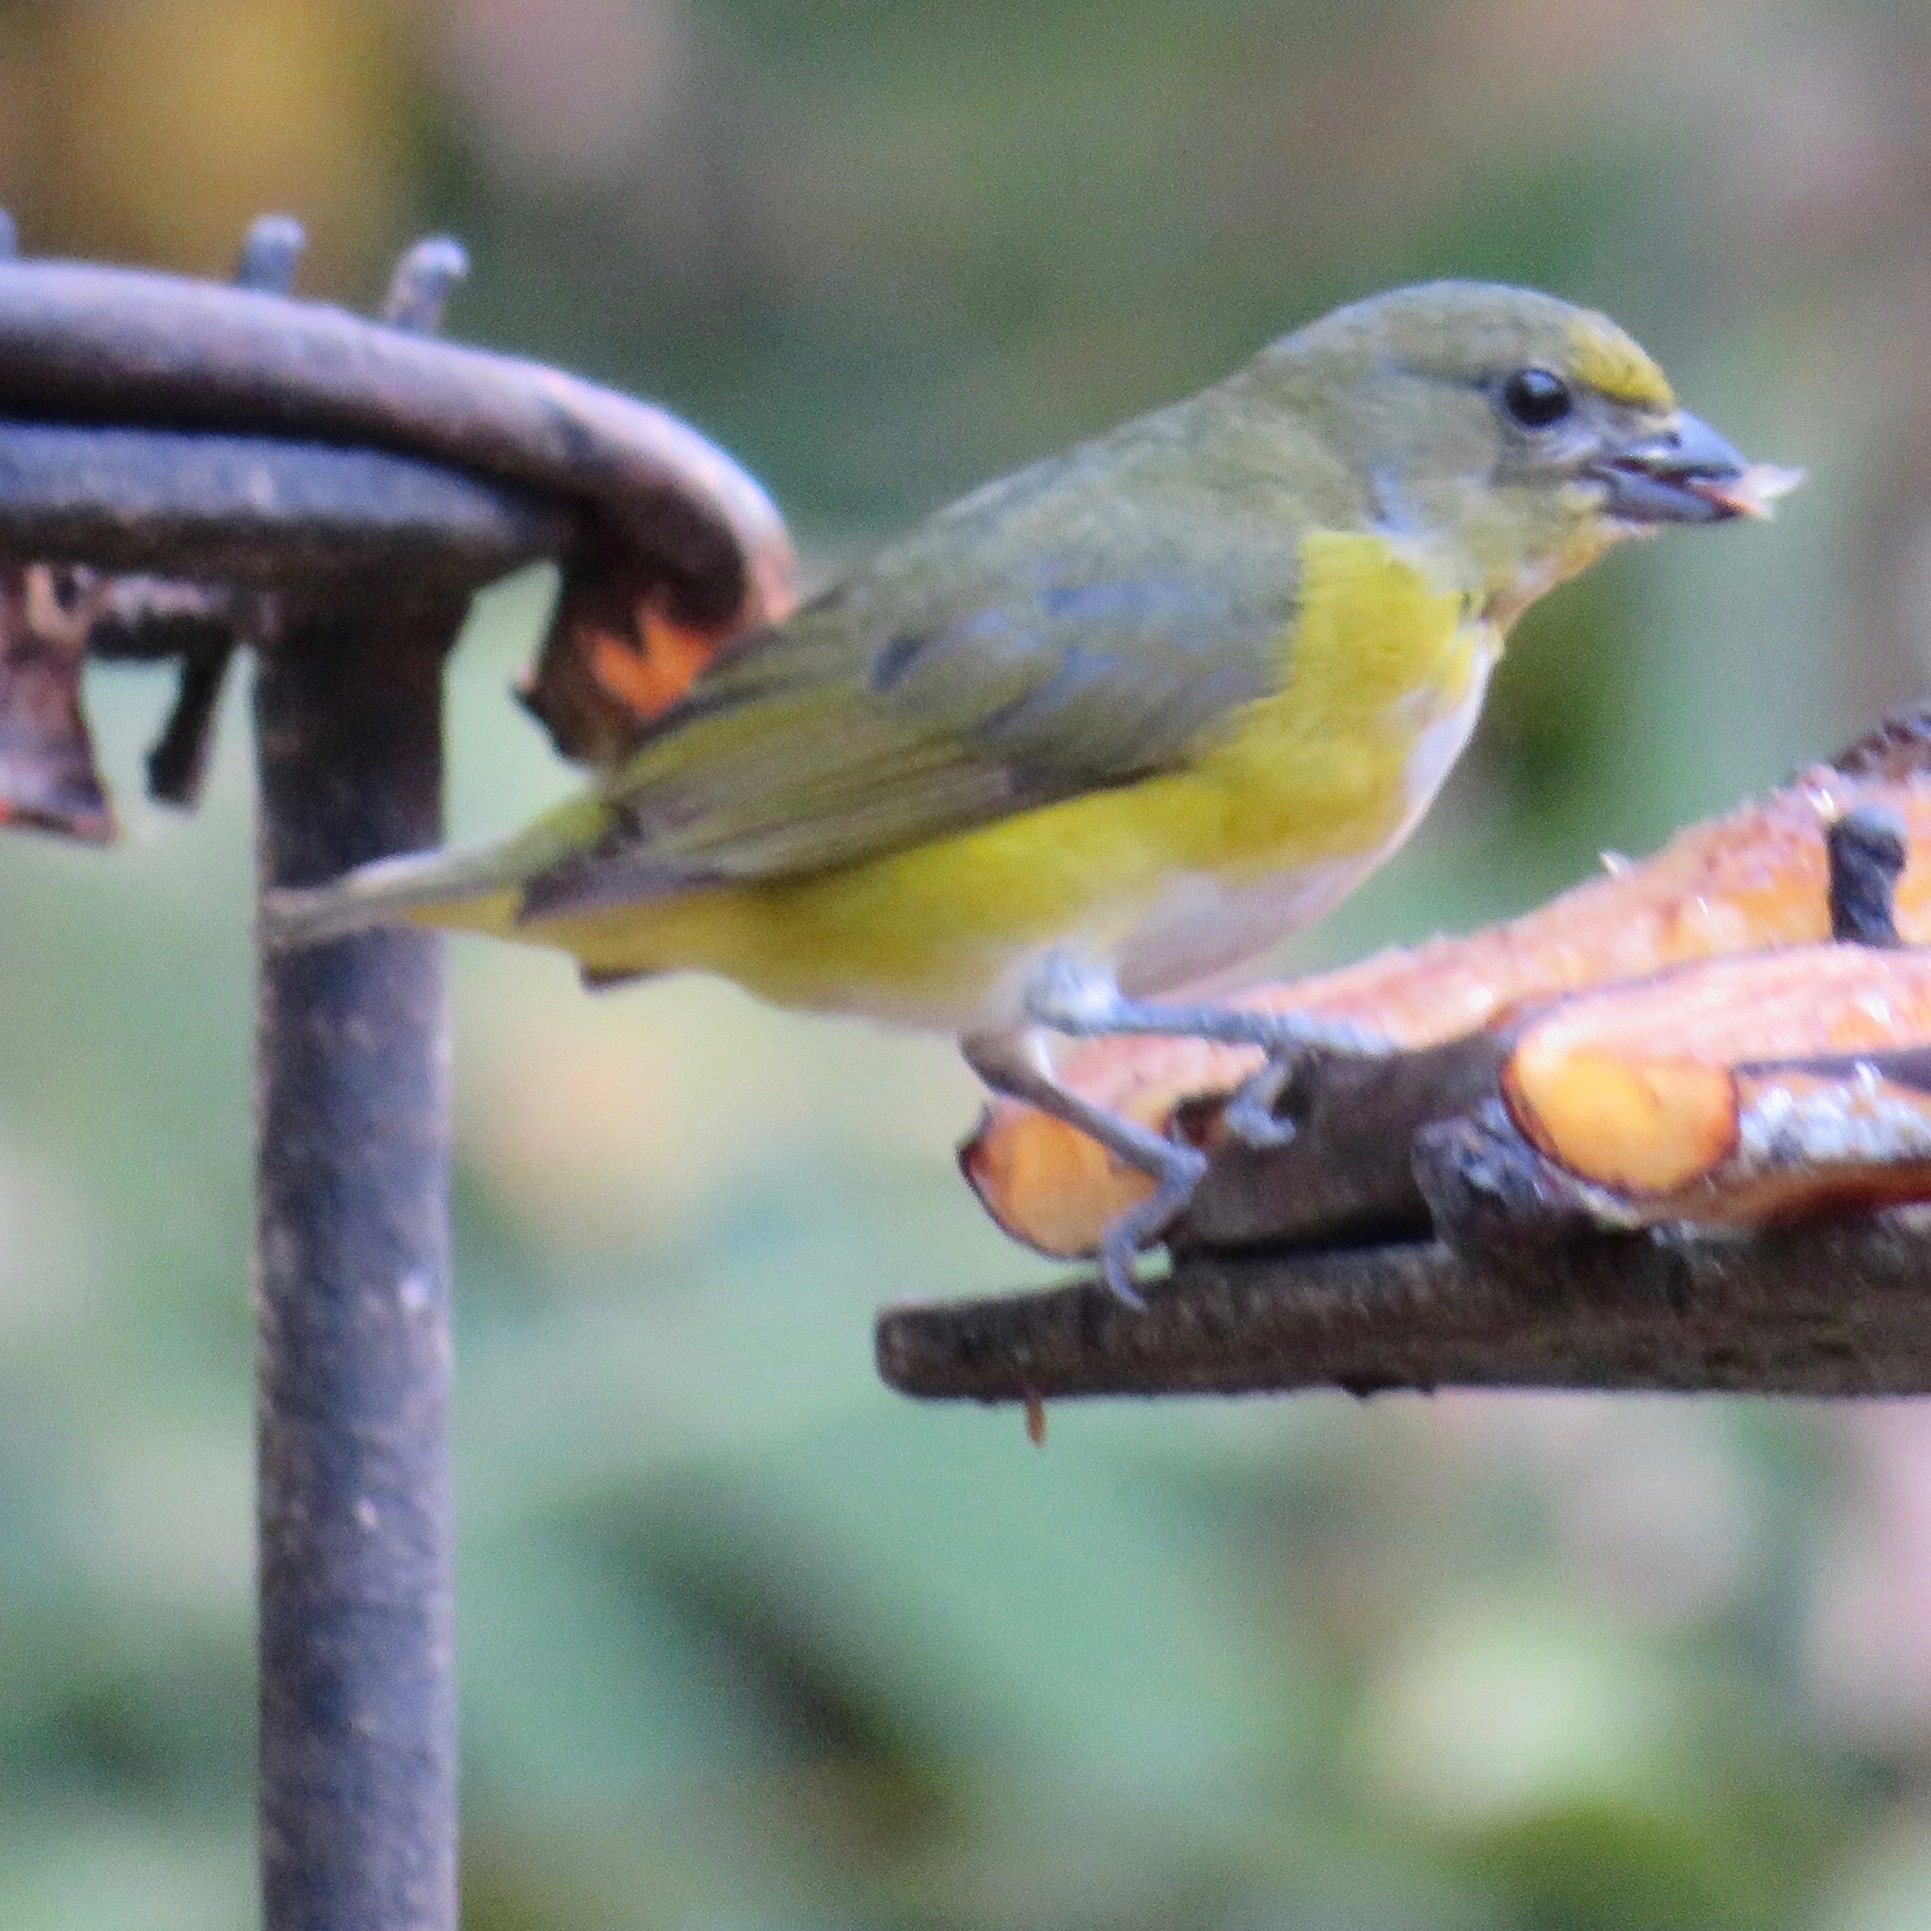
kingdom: Animalia
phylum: Chordata
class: Aves
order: Passeriformes
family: Fringillidae
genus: Euphonia
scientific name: Euphonia hirundinacea
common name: Yellow-throated euphonia
